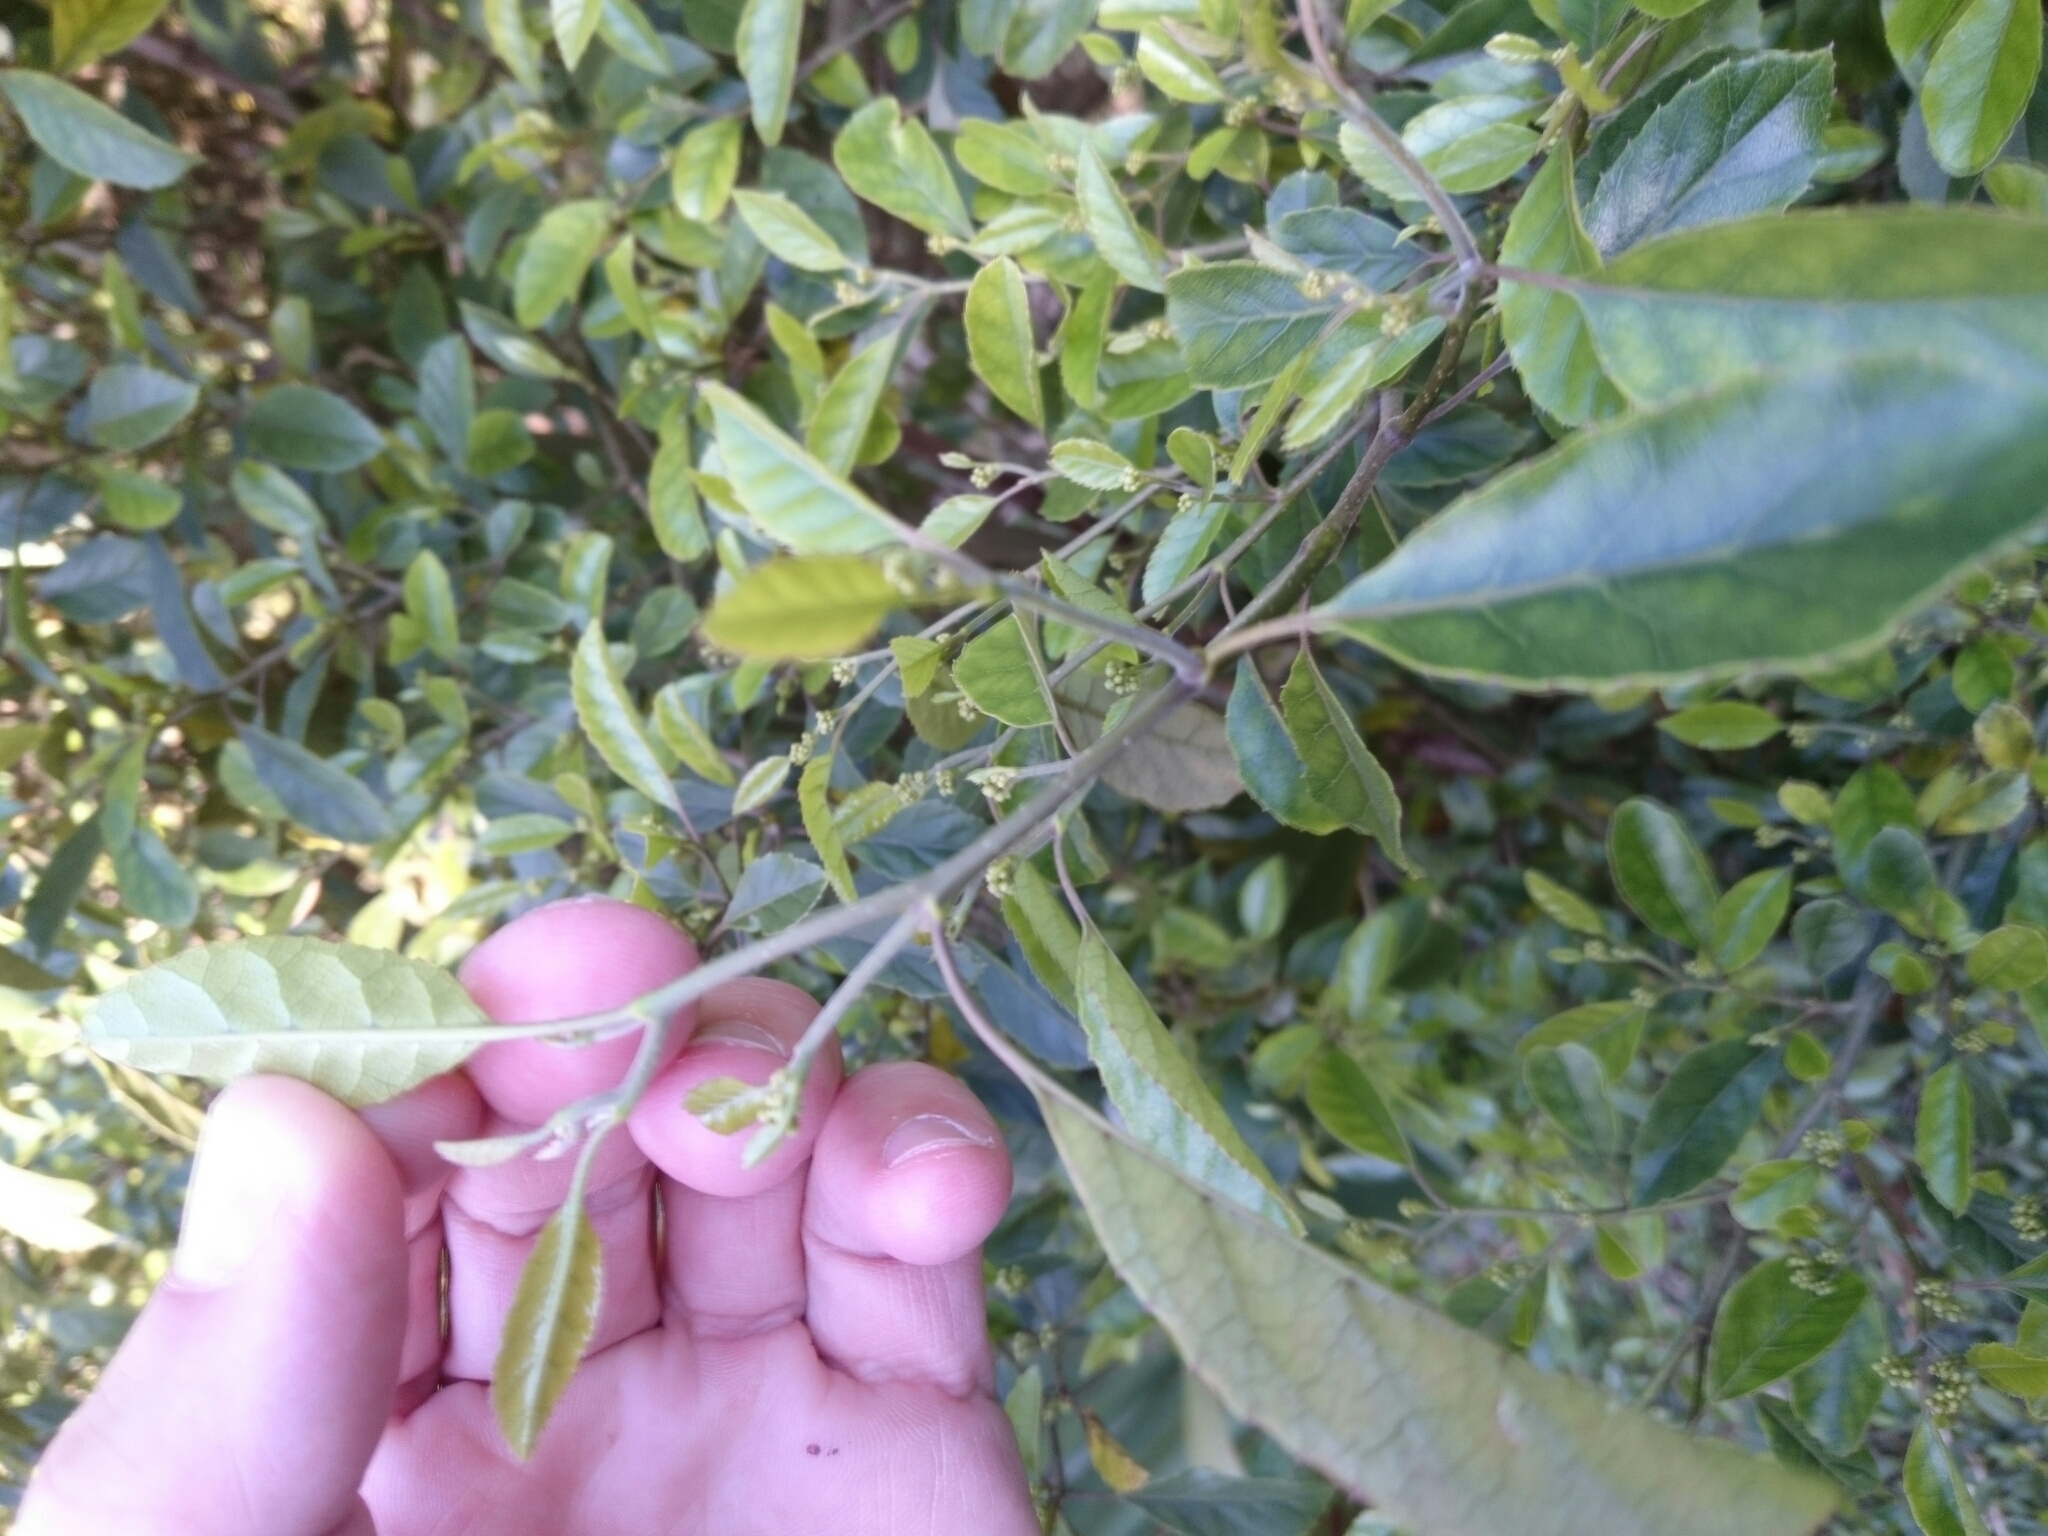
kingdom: Plantae
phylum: Tracheophyta
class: Magnoliopsida
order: Asterales
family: Rousseaceae
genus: Carpodetus
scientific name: Carpodetus serratus
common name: White mapau
